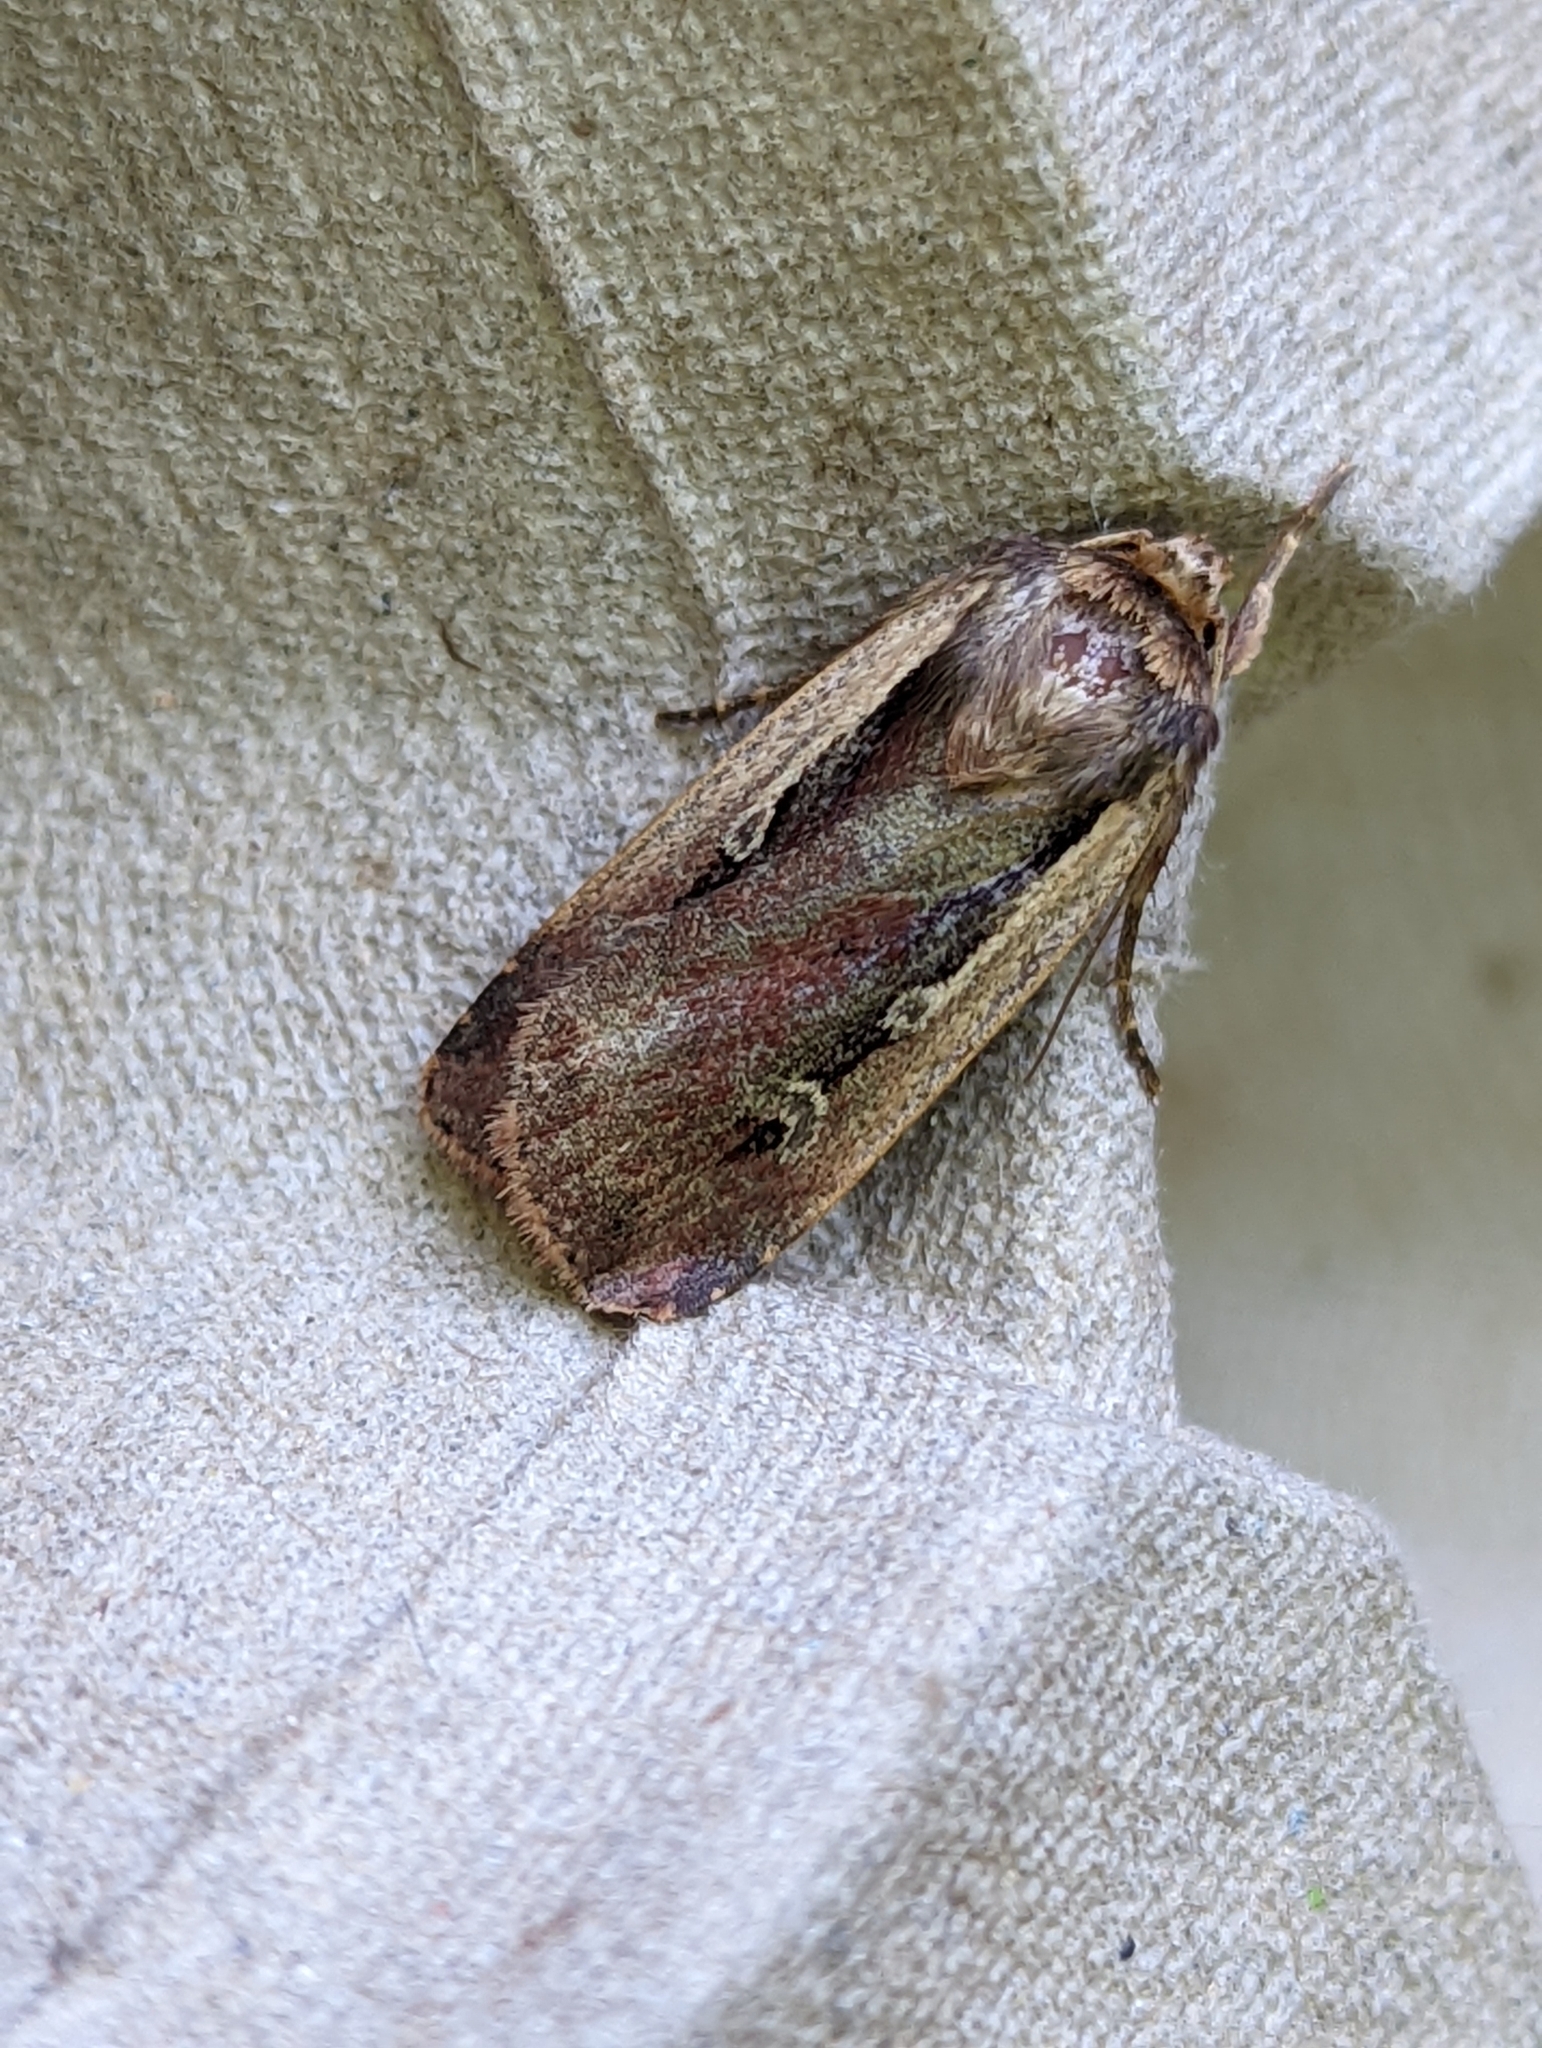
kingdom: Animalia
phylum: Arthropoda
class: Insecta
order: Lepidoptera
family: Noctuidae
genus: Ochropleura
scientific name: Ochropleura plecta
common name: Flame shoulder
